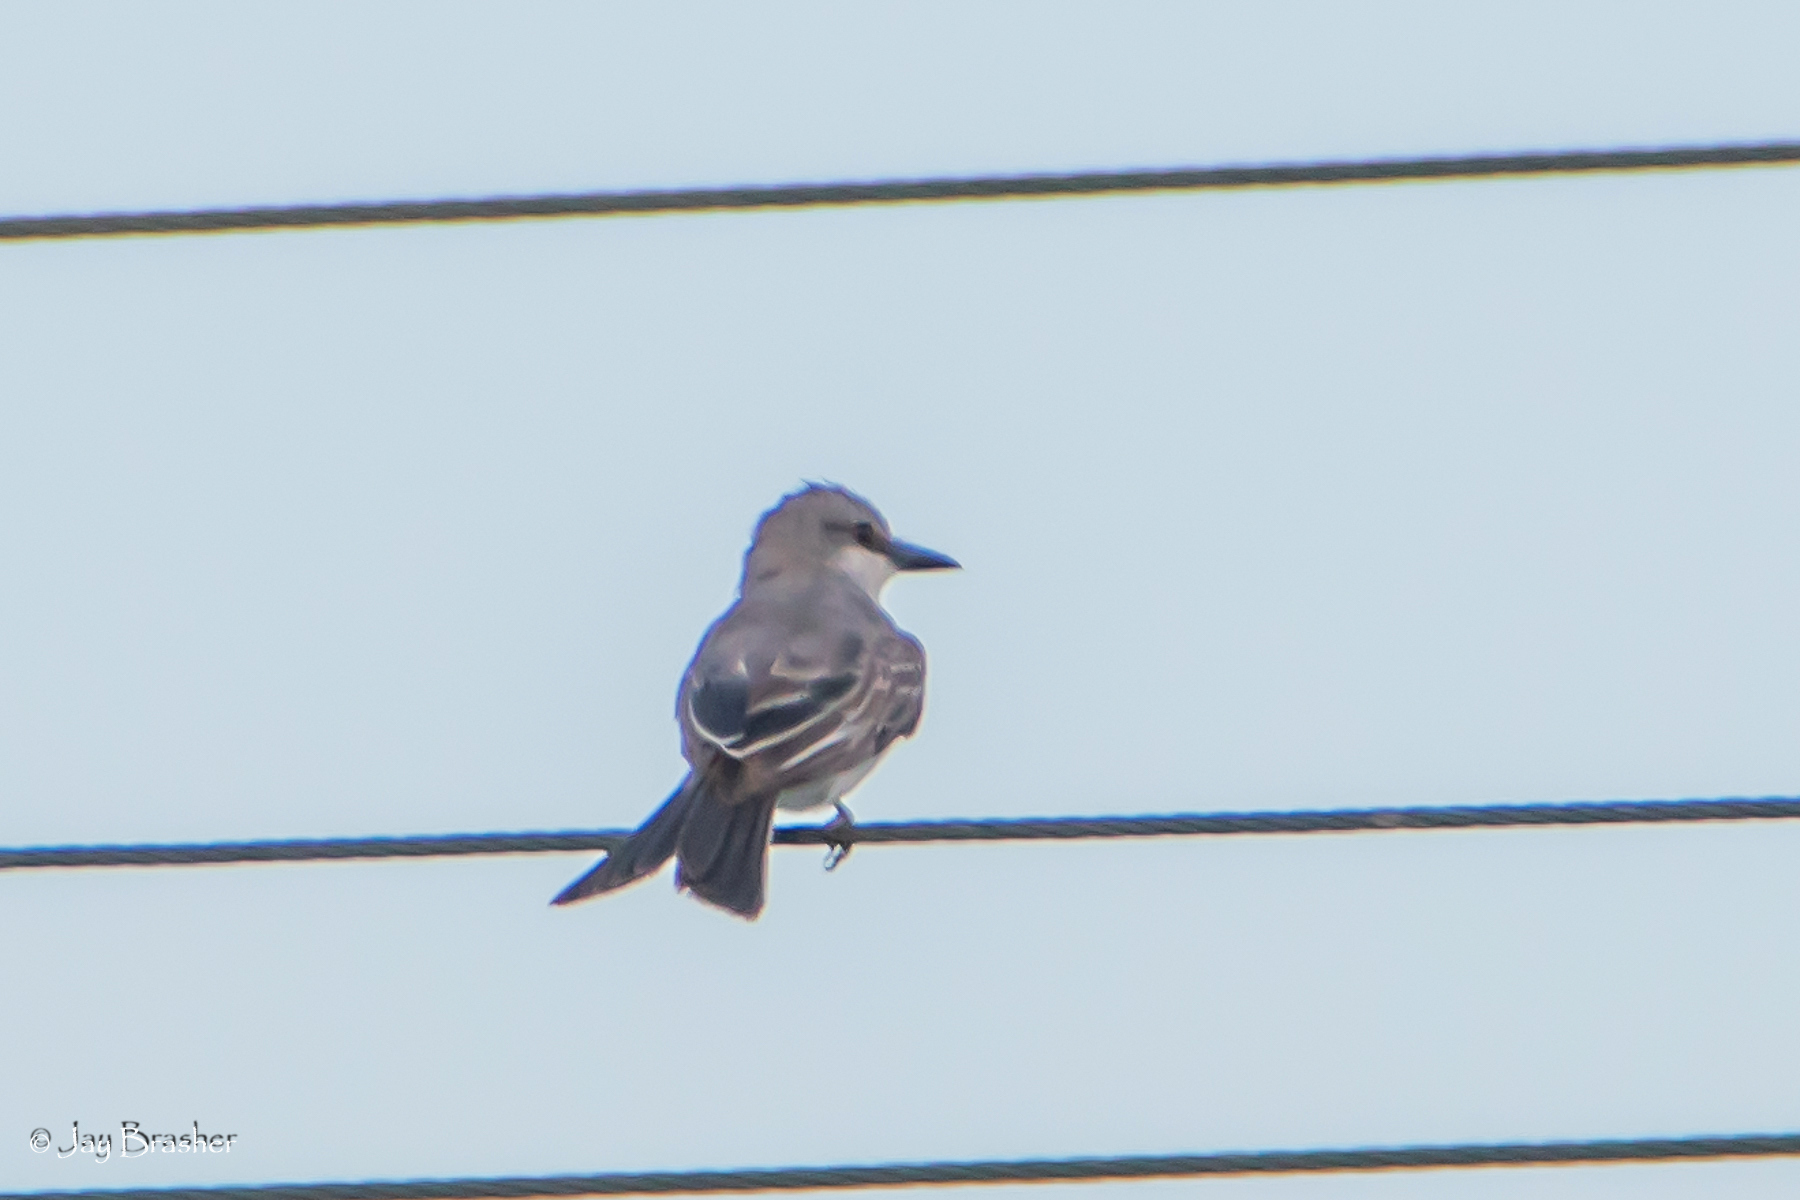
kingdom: Animalia
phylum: Chordata
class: Aves
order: Passeriformes
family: Tyrannidae
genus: Tyrannus
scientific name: Tyrannus dominicensis
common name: Gray kingbird
